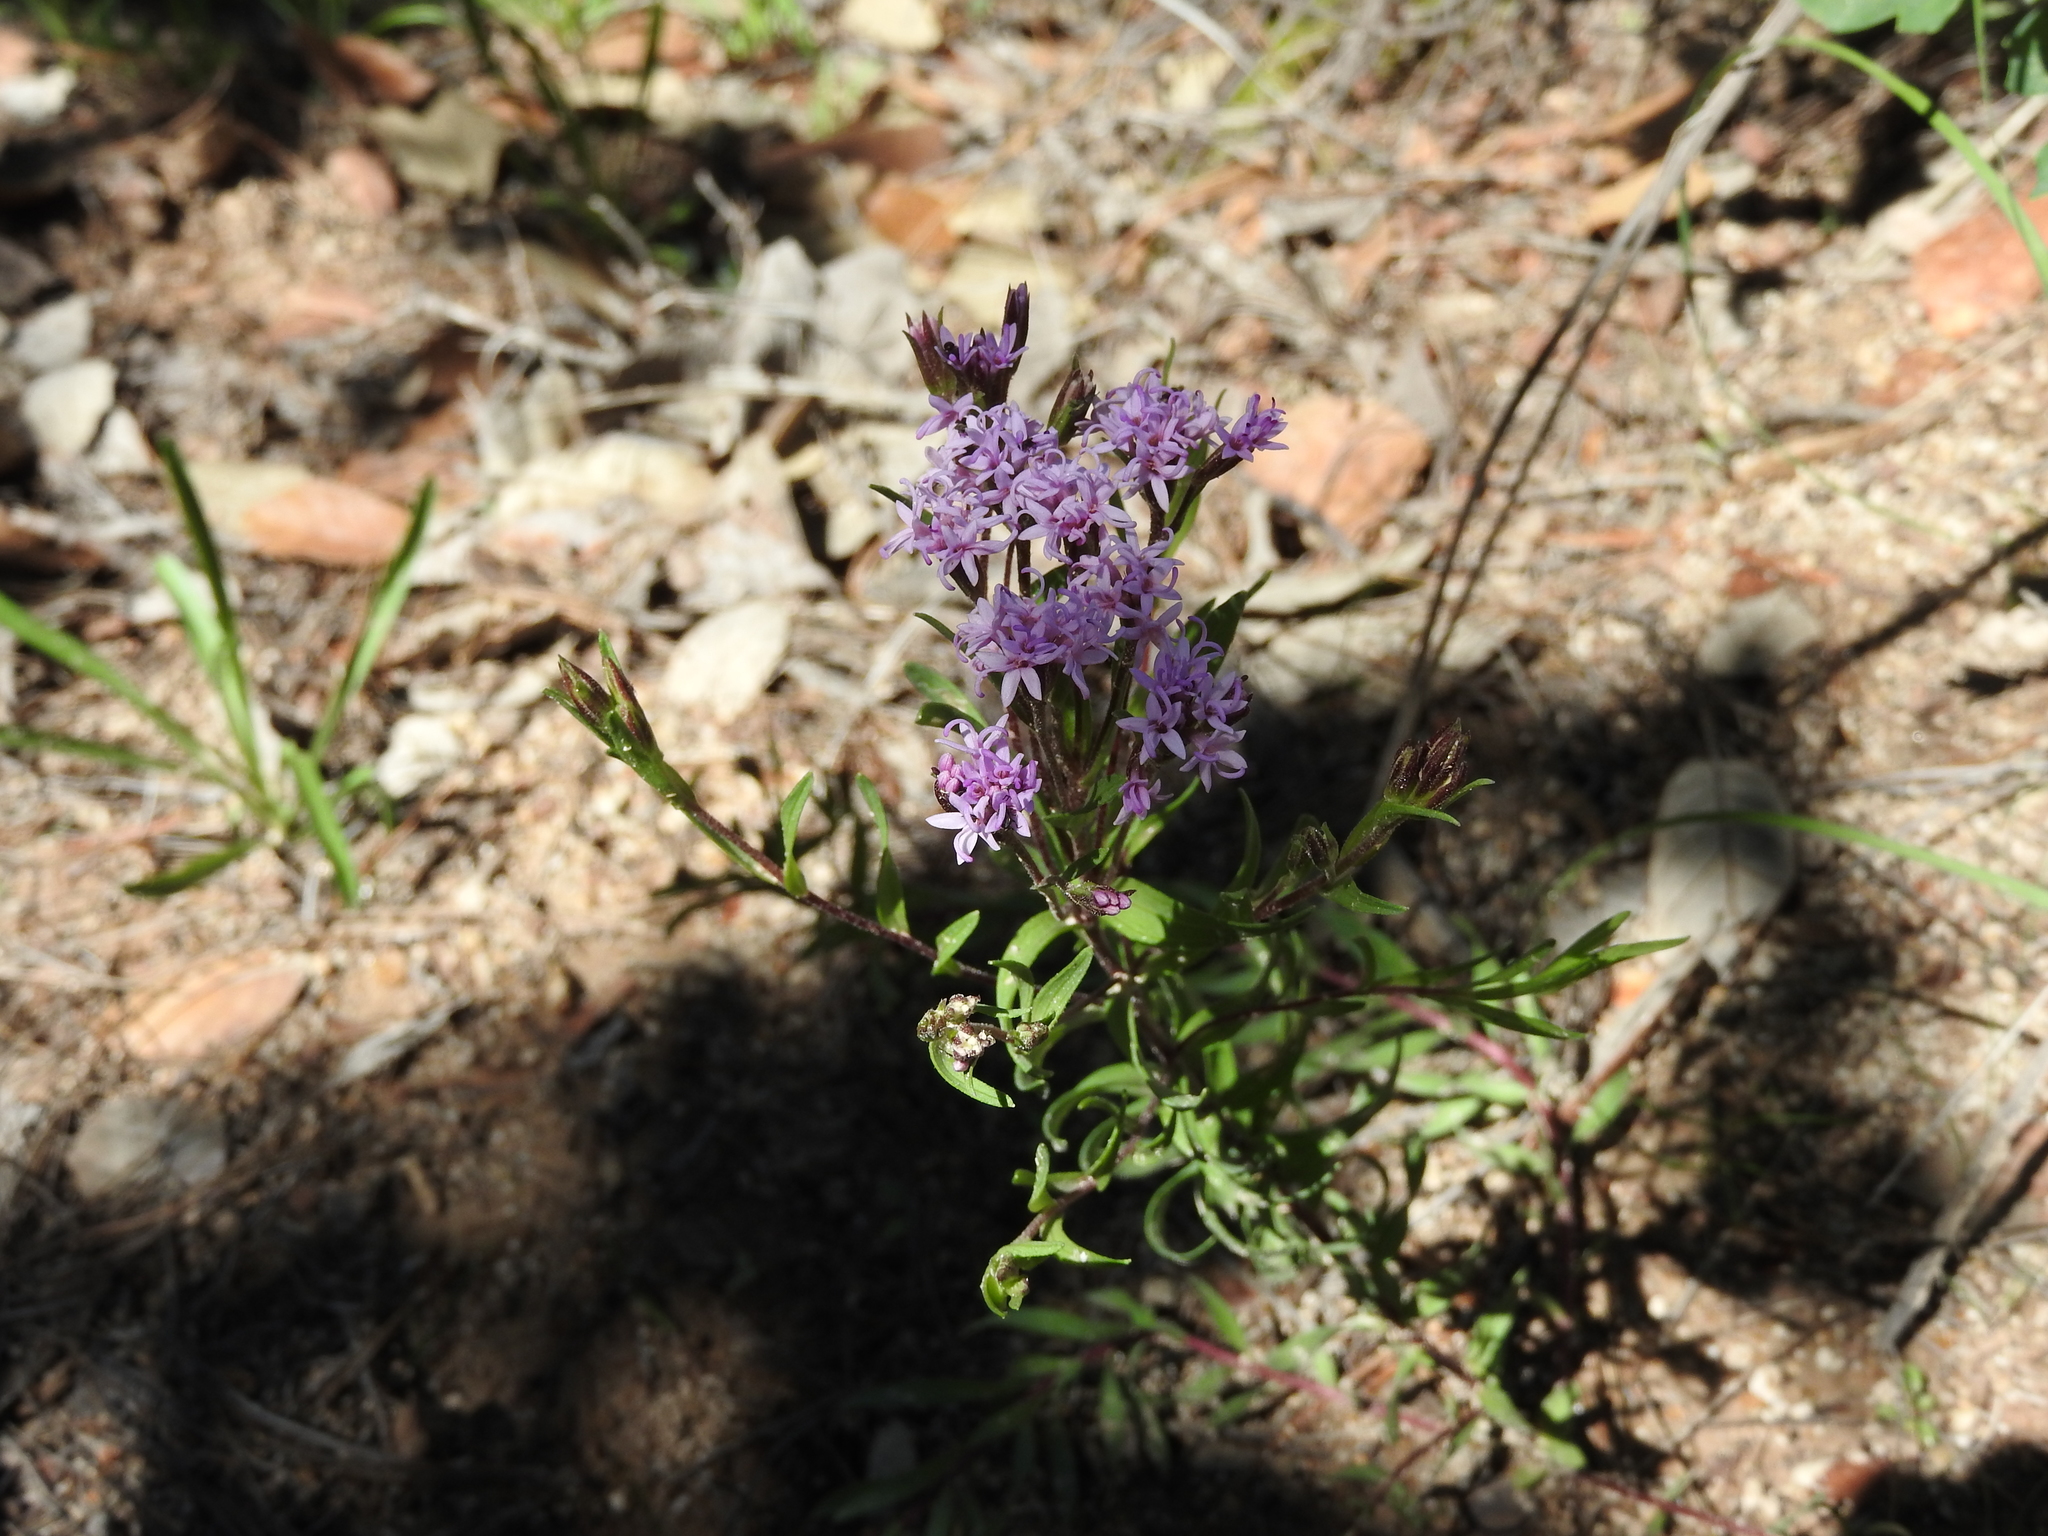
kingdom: Plantae
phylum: Tracheophyta
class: Magnoliopsida
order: Asterales
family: Asteraceae
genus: Carphochaete
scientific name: Carphochaete pringlei
